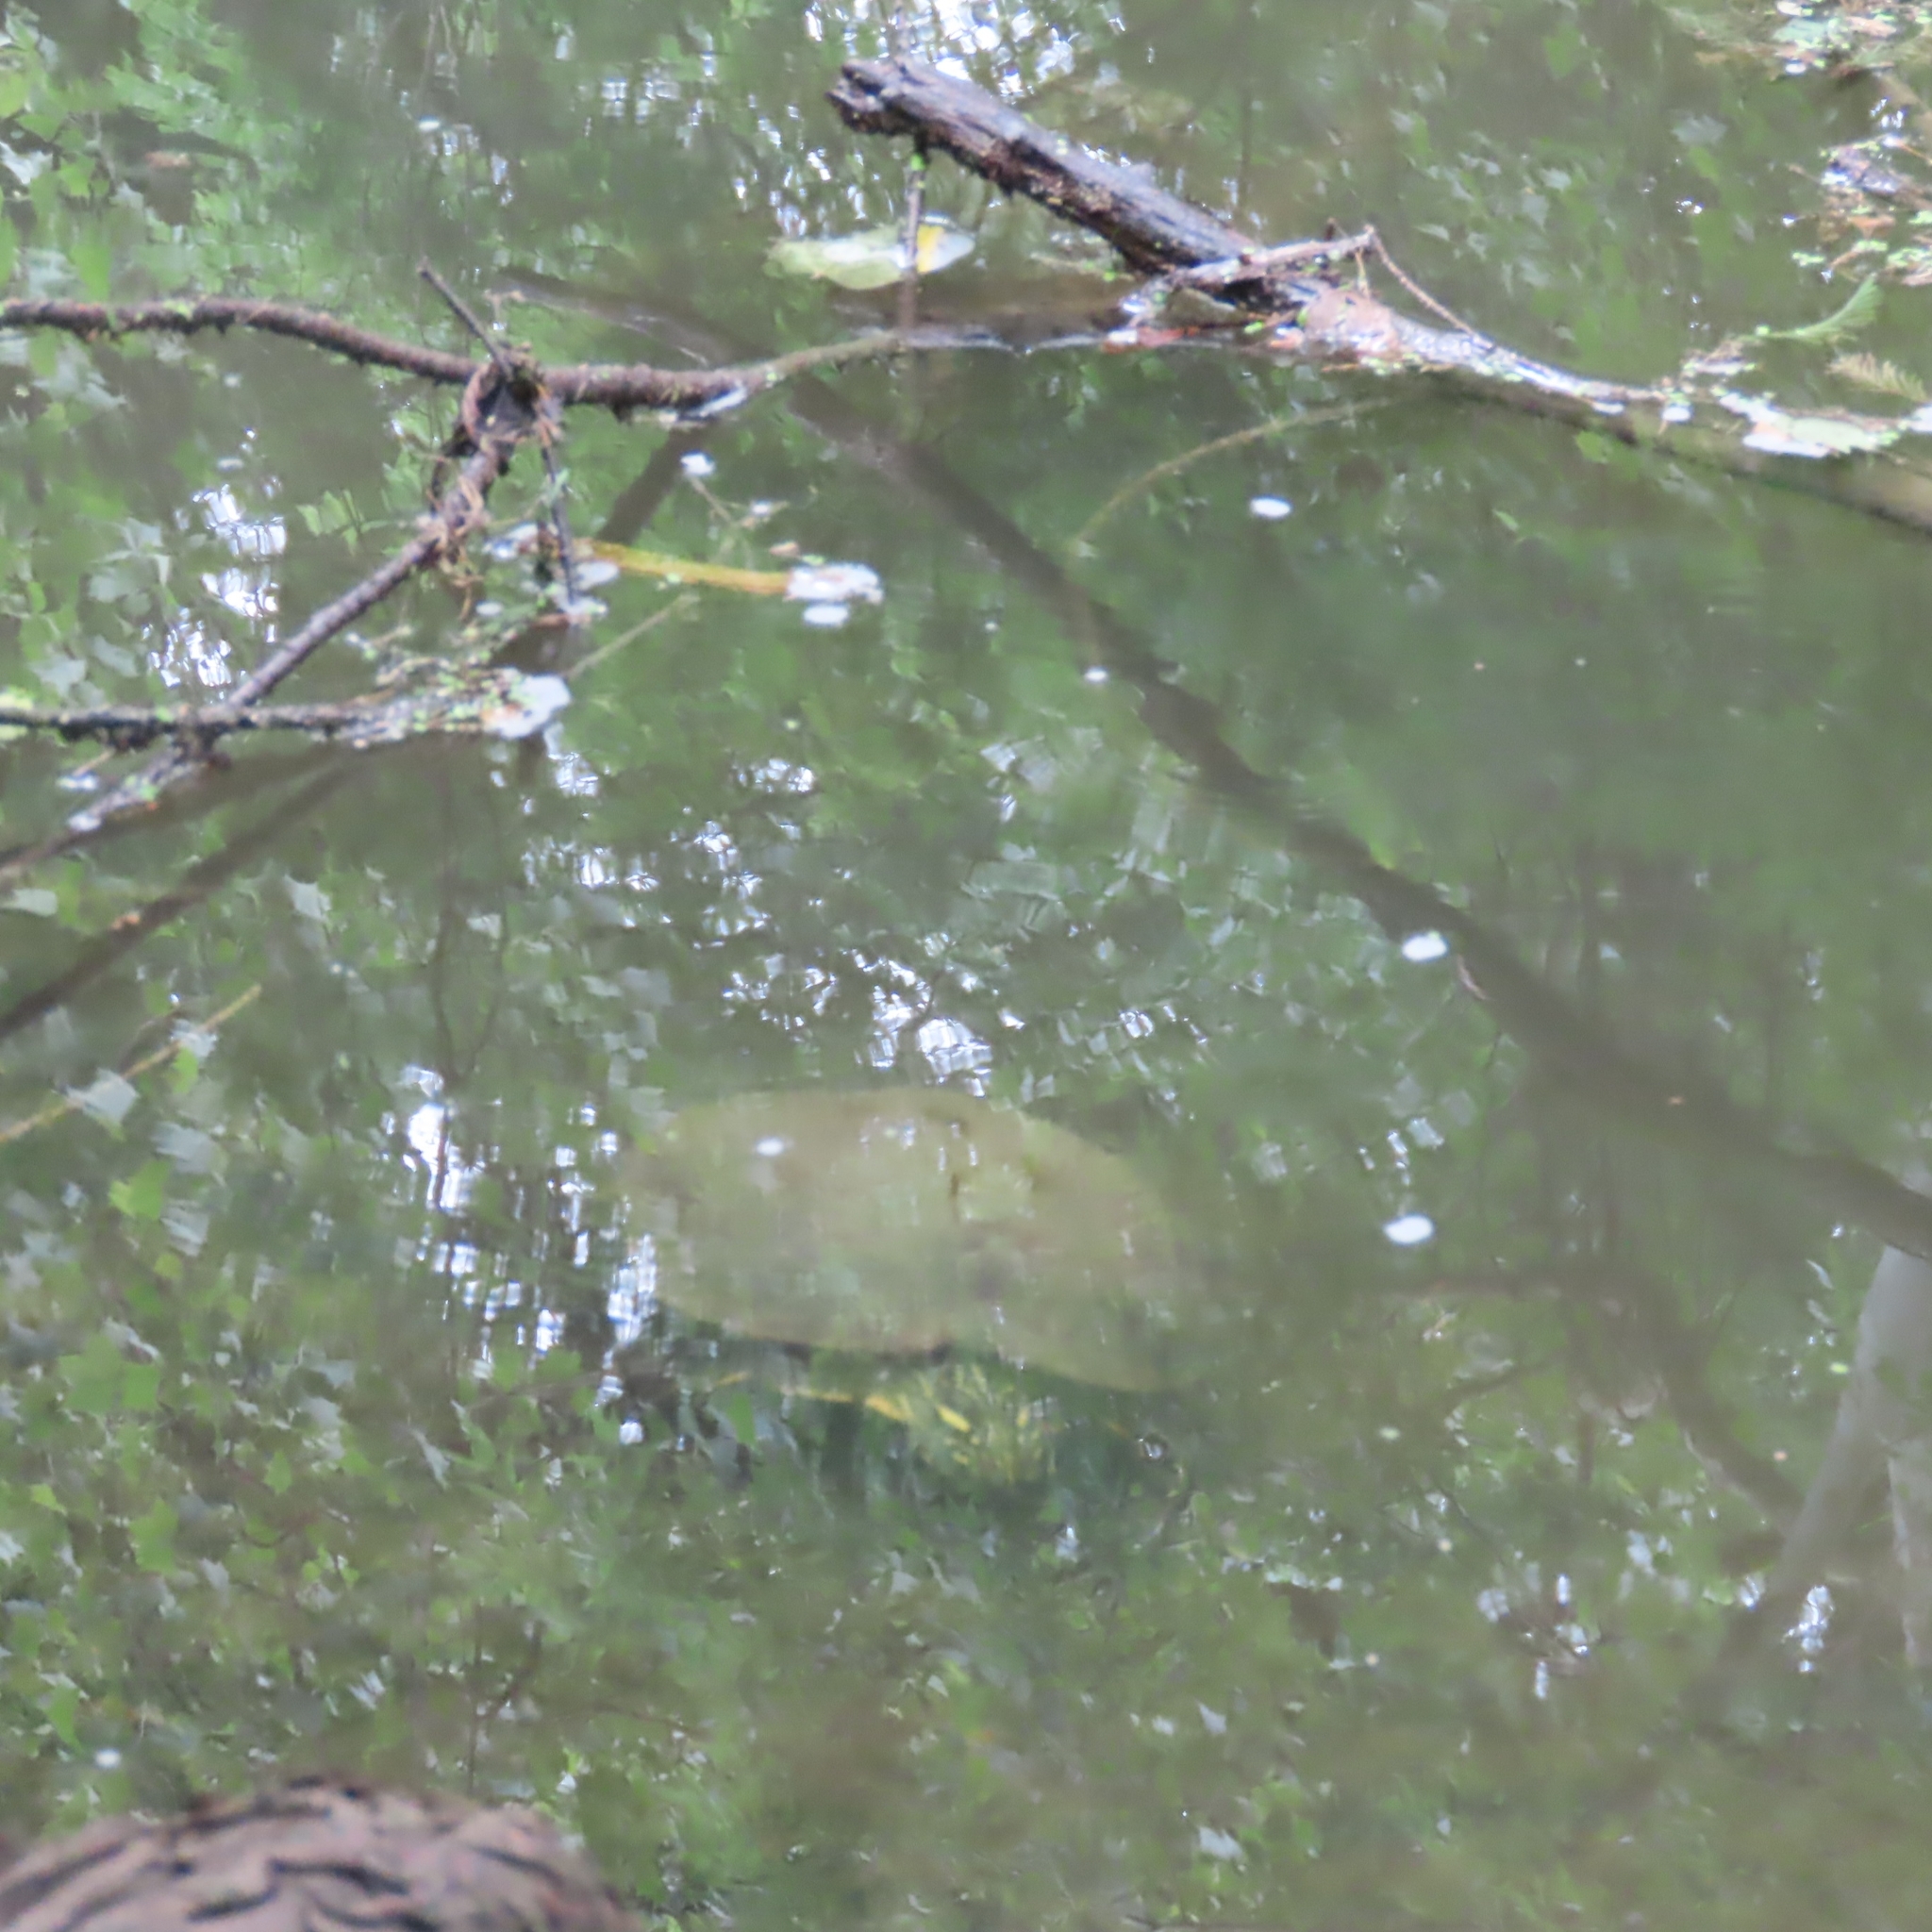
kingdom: Animalia
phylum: Chordata
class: Testudines
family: Emydidae
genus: Pseudemys
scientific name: Pseudemys texana
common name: Texas river cooter
